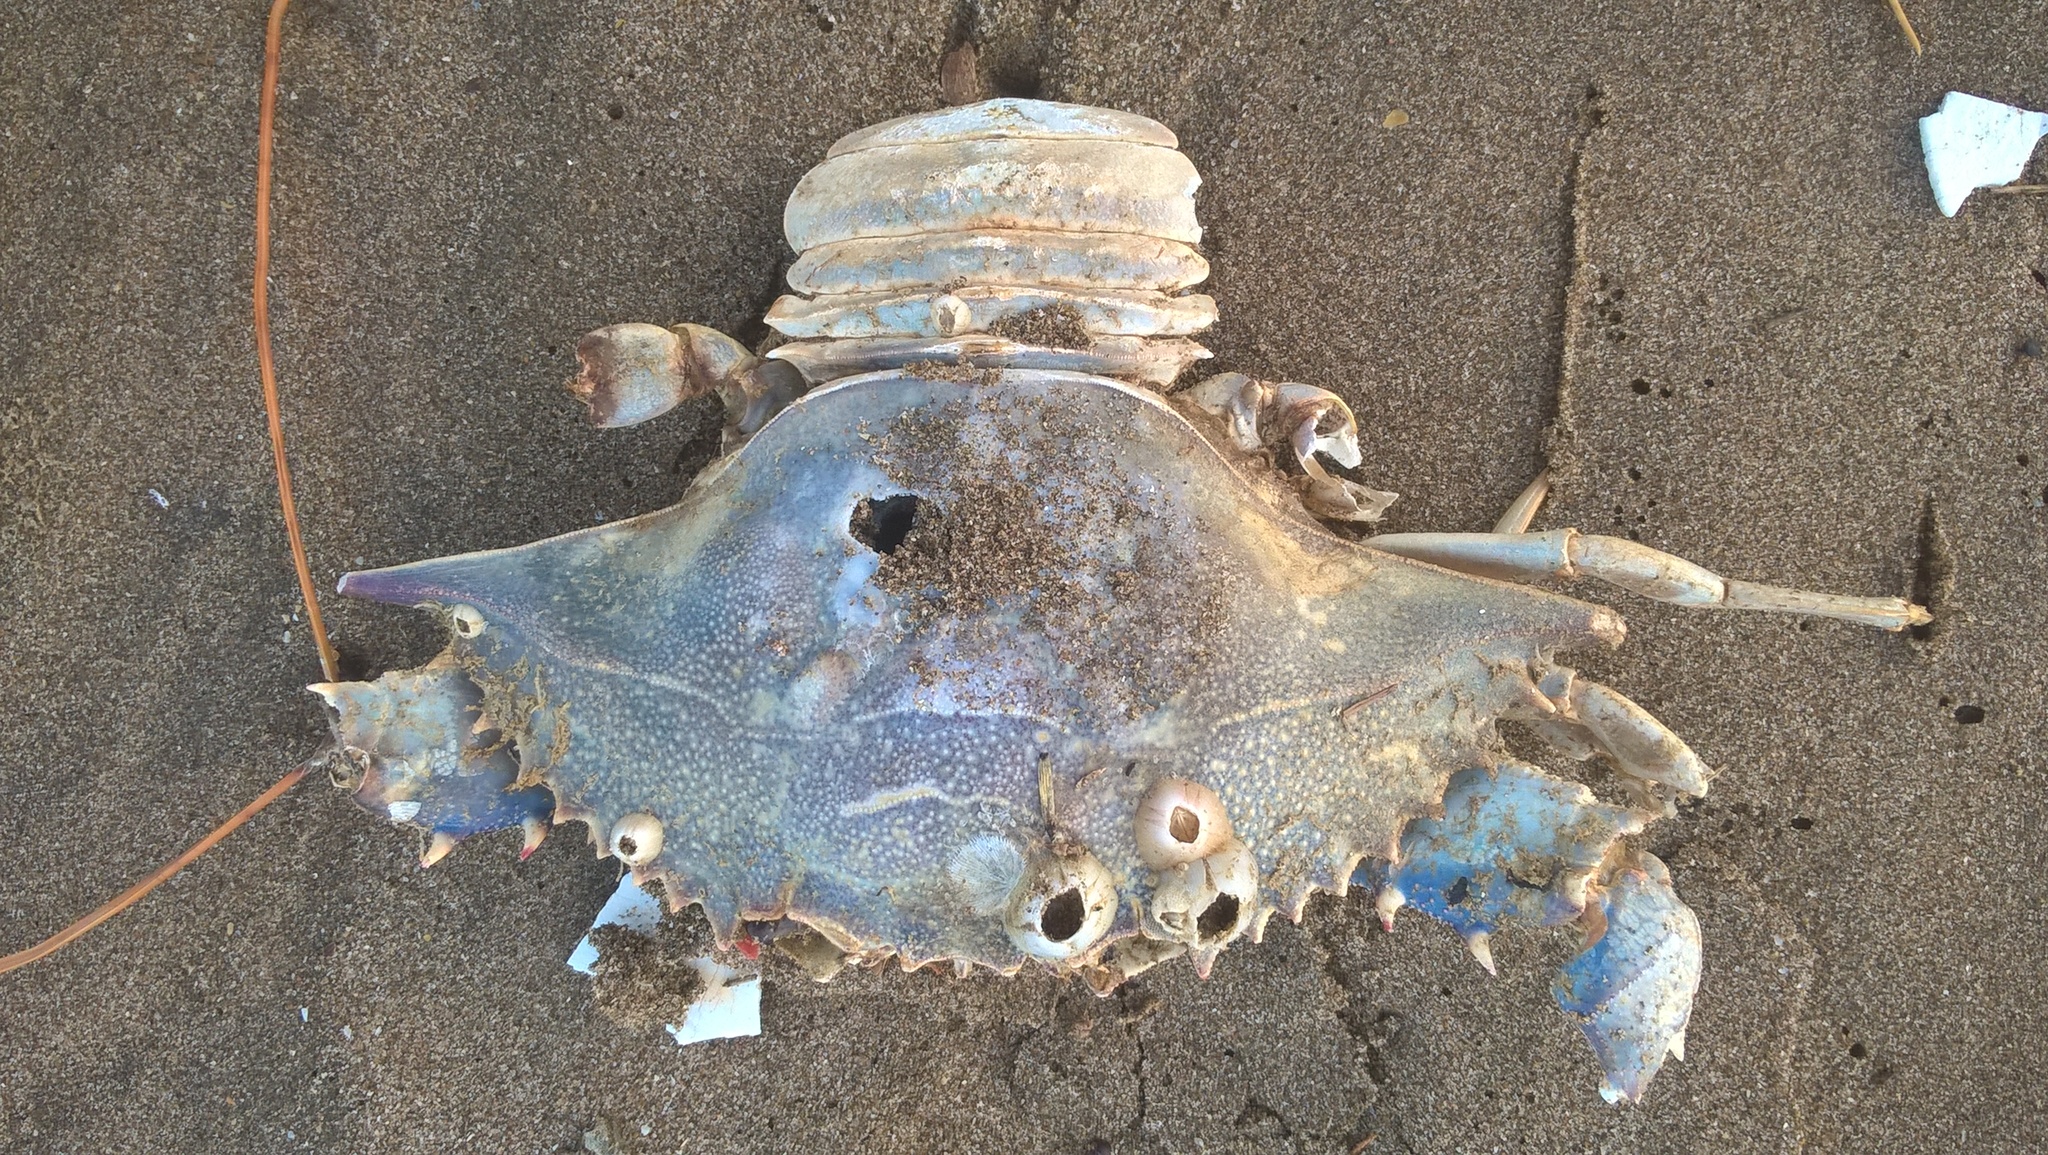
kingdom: Animalia
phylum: Arthropoda
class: Malacostraca
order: Decapoda
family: Portunidae
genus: Callinectes
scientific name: Callinectes sapidus
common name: Blue crab
